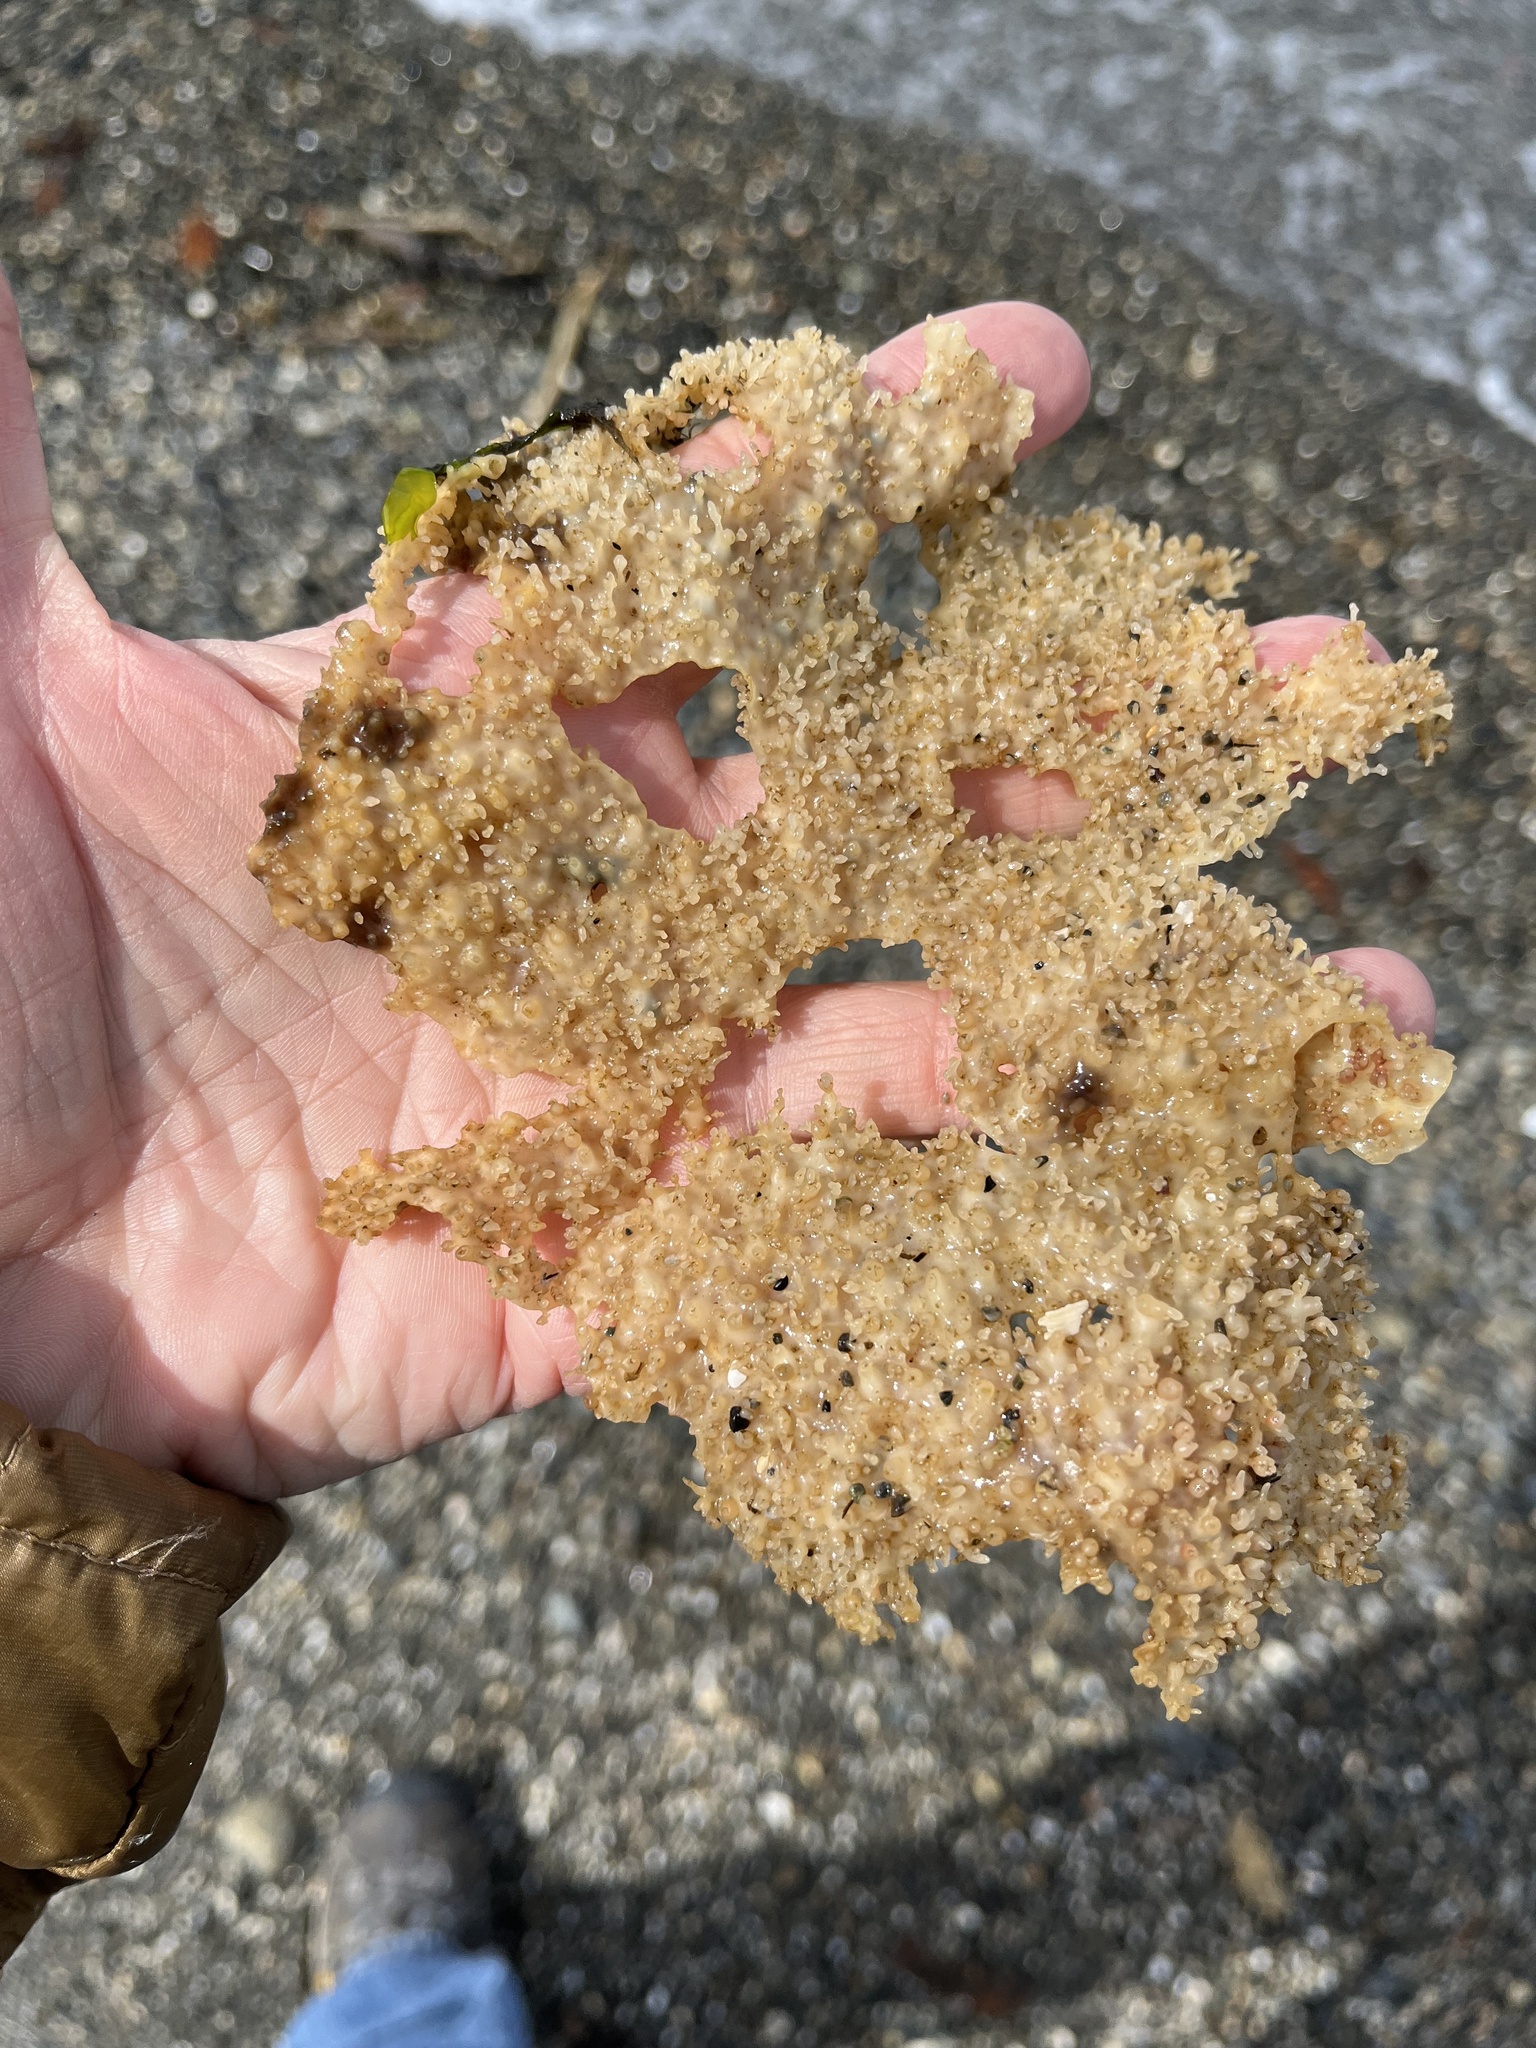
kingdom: Plantae
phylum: Rhodophyta
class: Florideophyceae
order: Gigartinales
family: Gigartinaceae
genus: Chondracanthus
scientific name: Chondracanthus exasperatus
